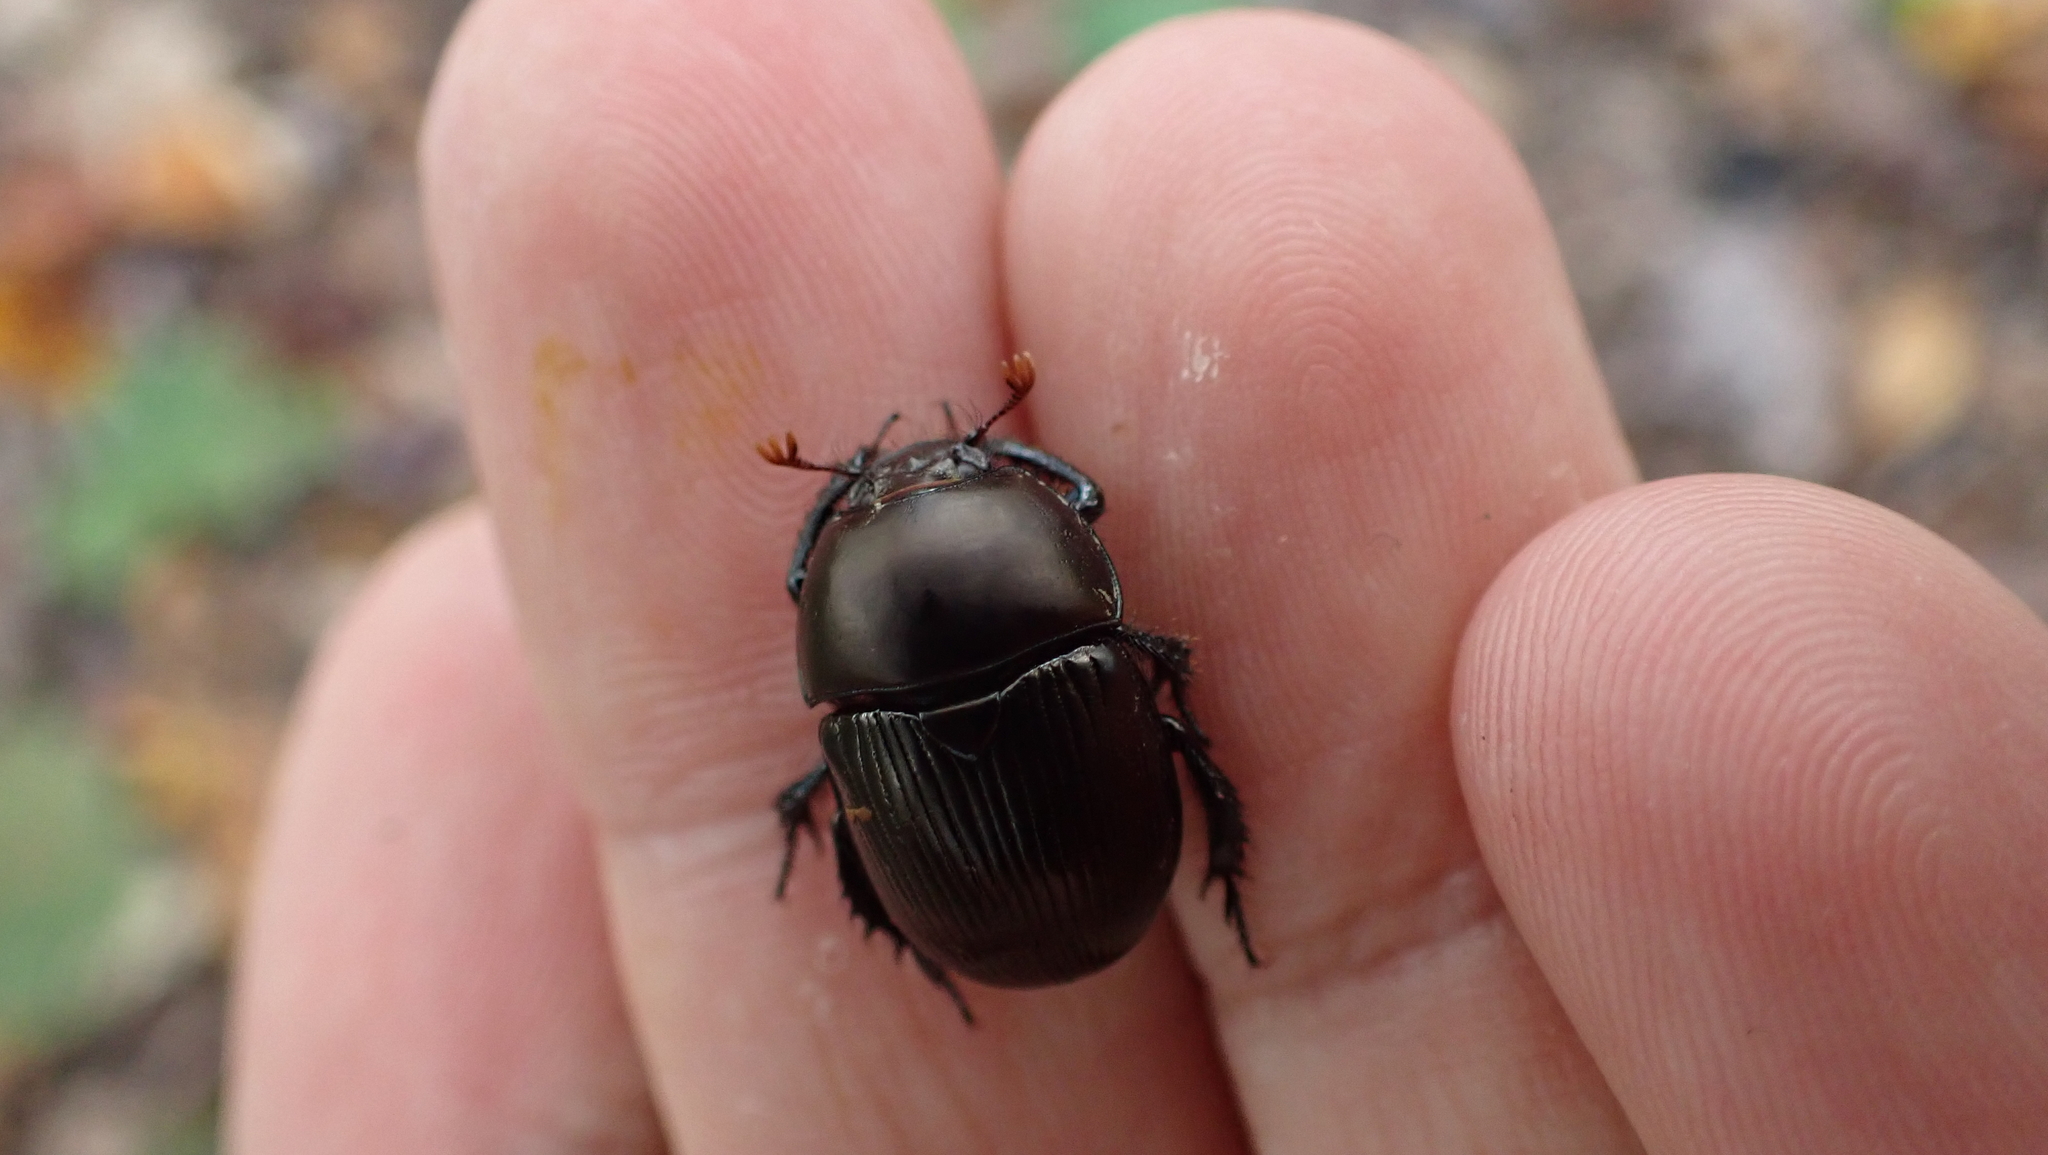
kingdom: Animalia
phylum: Arthropoda
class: Insecta
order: Coleoptera
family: Geotrupidae
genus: Cnemotrupes
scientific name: Cnemotrupes semiopacus
